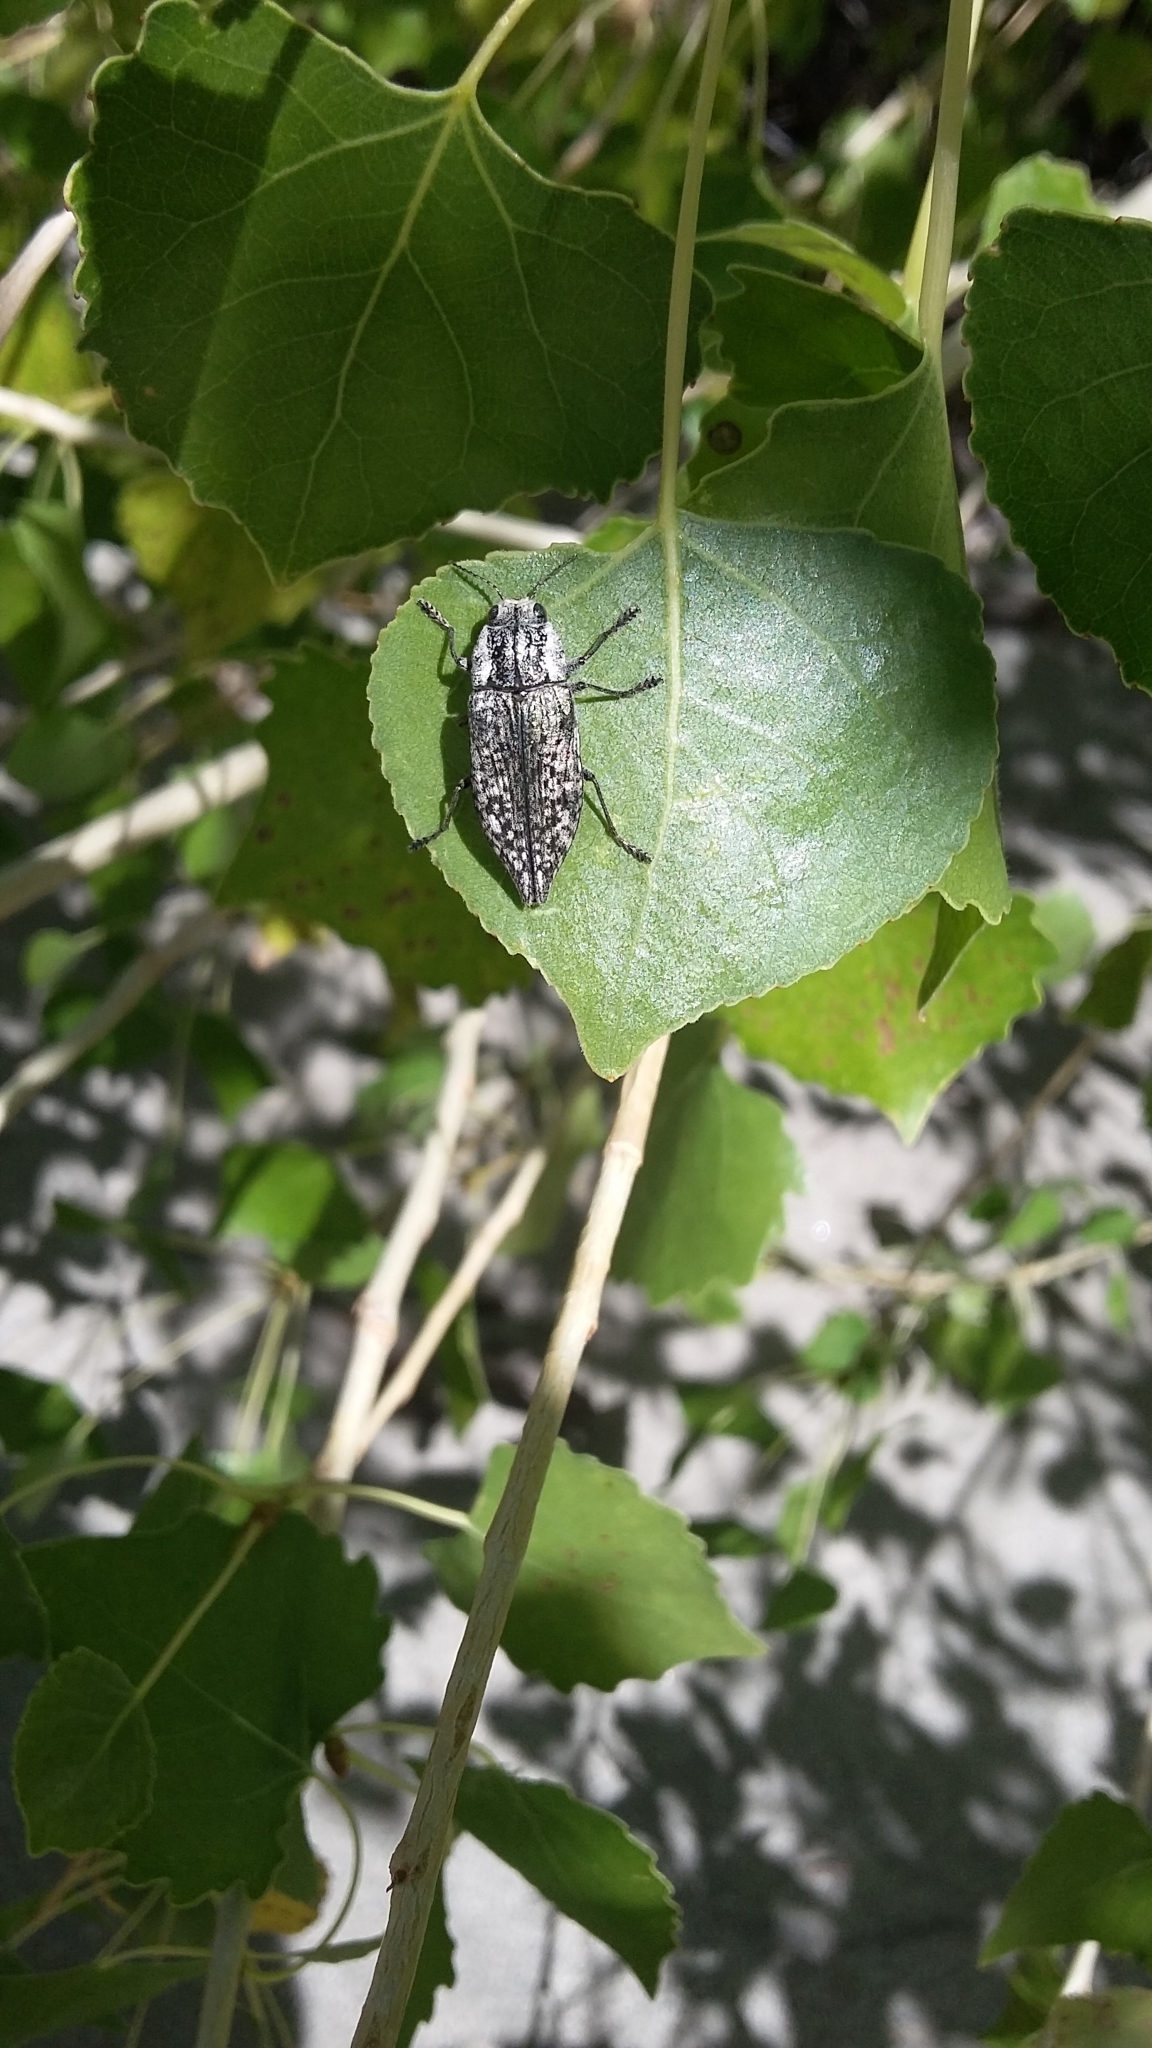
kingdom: Animalia
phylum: Arthropoda
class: Insecta
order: Coleoptera
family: Buprestidae
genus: Poecilonota
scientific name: Poecilonota bridwelli
